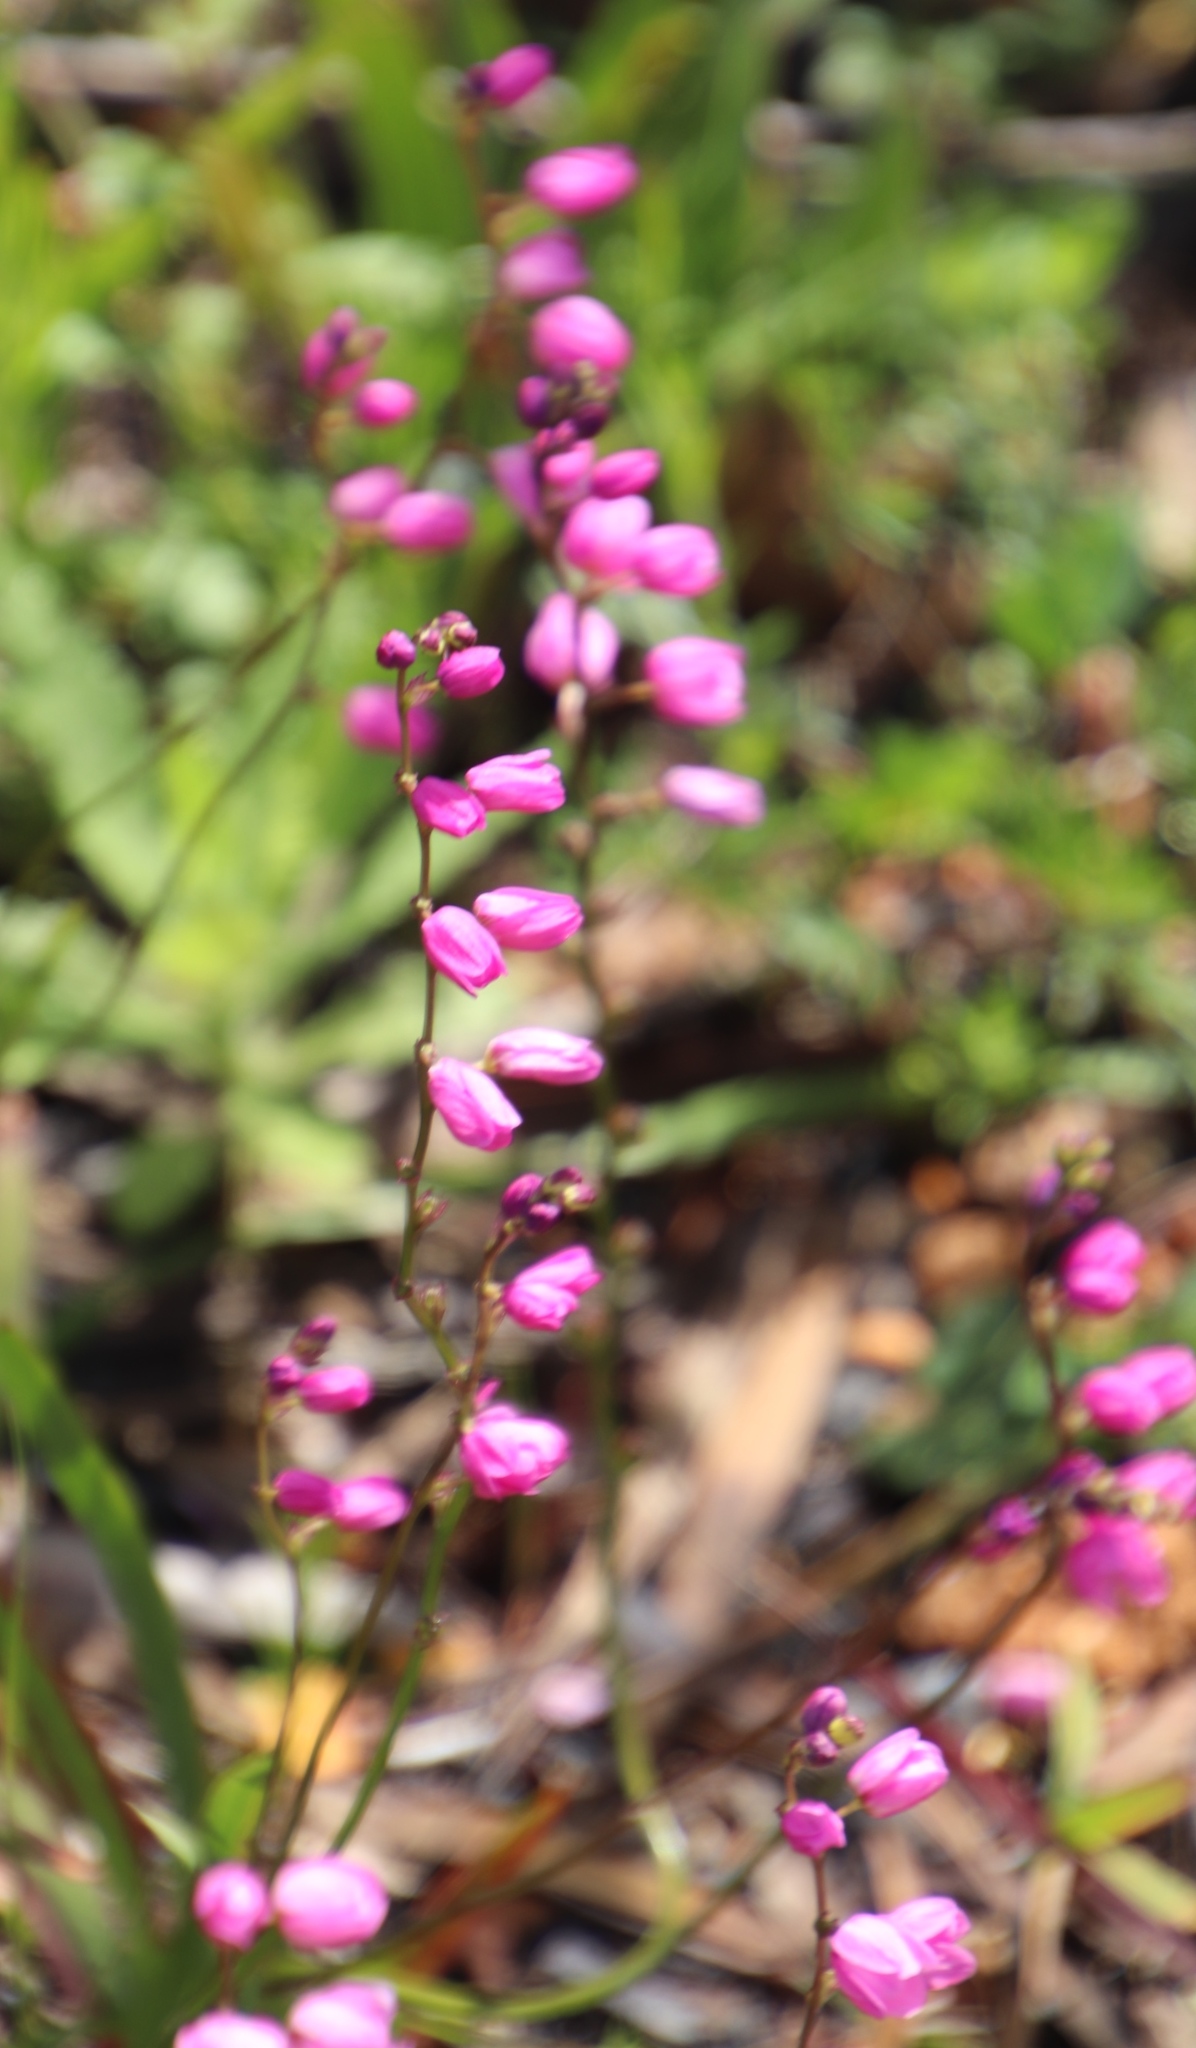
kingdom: Plantae
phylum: Tracheophyta
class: Liliopsida
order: Asparagales
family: Iridaceae
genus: Ixia
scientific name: Ixia scillaris
